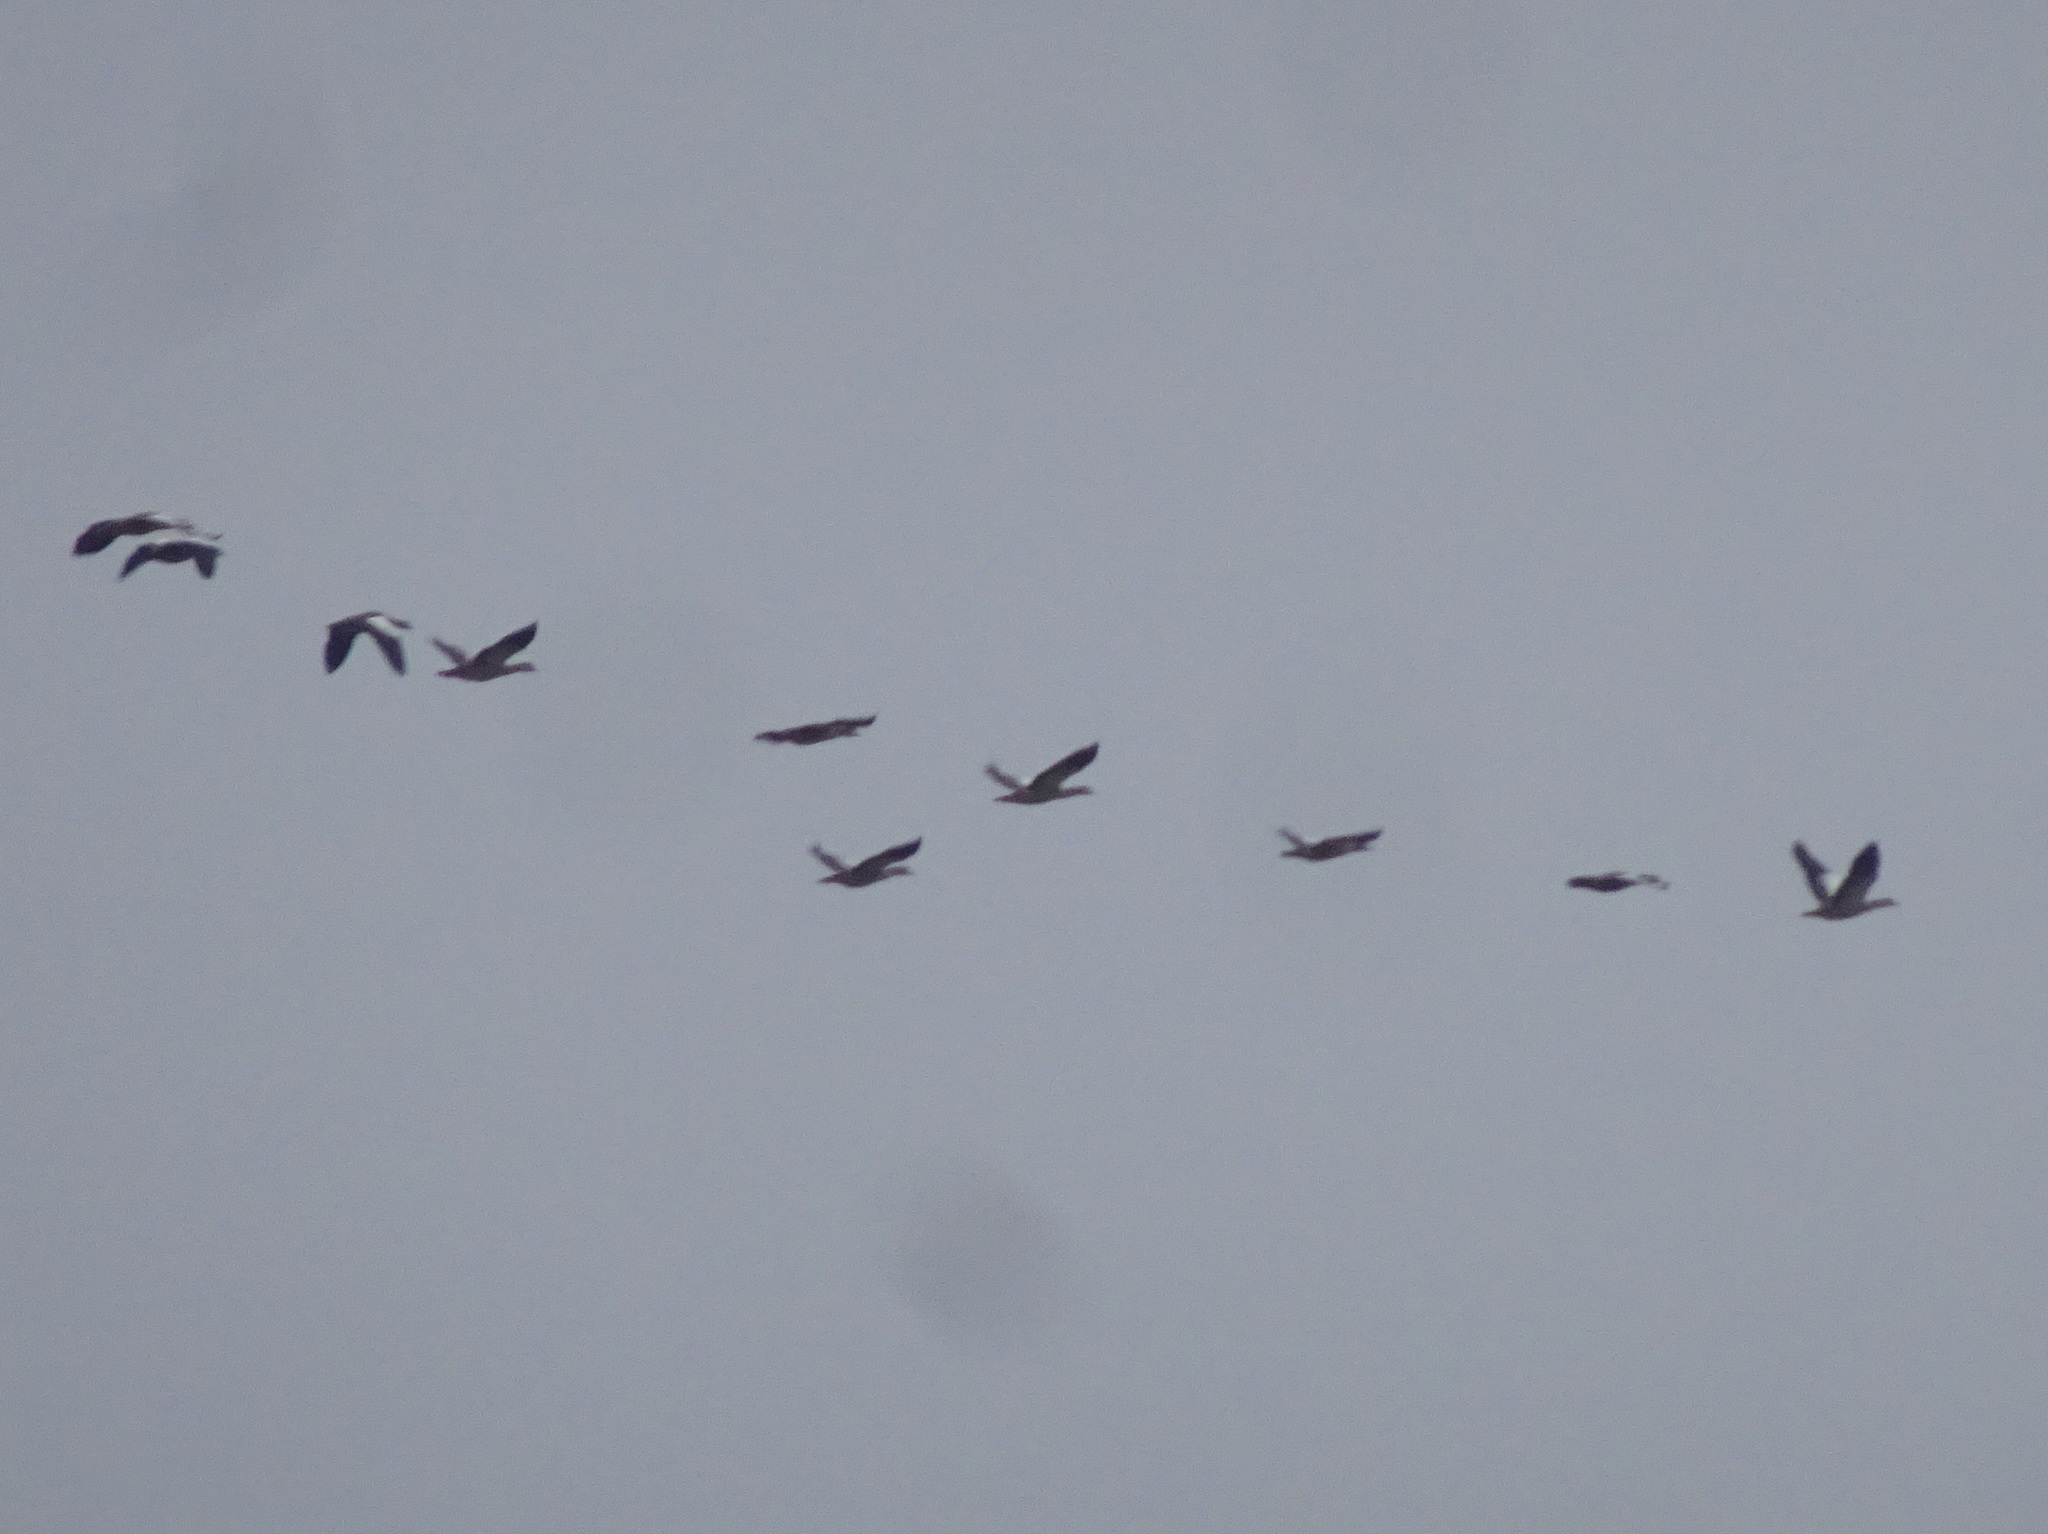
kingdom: Animalia
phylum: Chordata
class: Aves
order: Anseriformes
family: Anatidae
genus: Alopochen
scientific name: Alopochen aegyptiaca
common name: Egyptian goose
